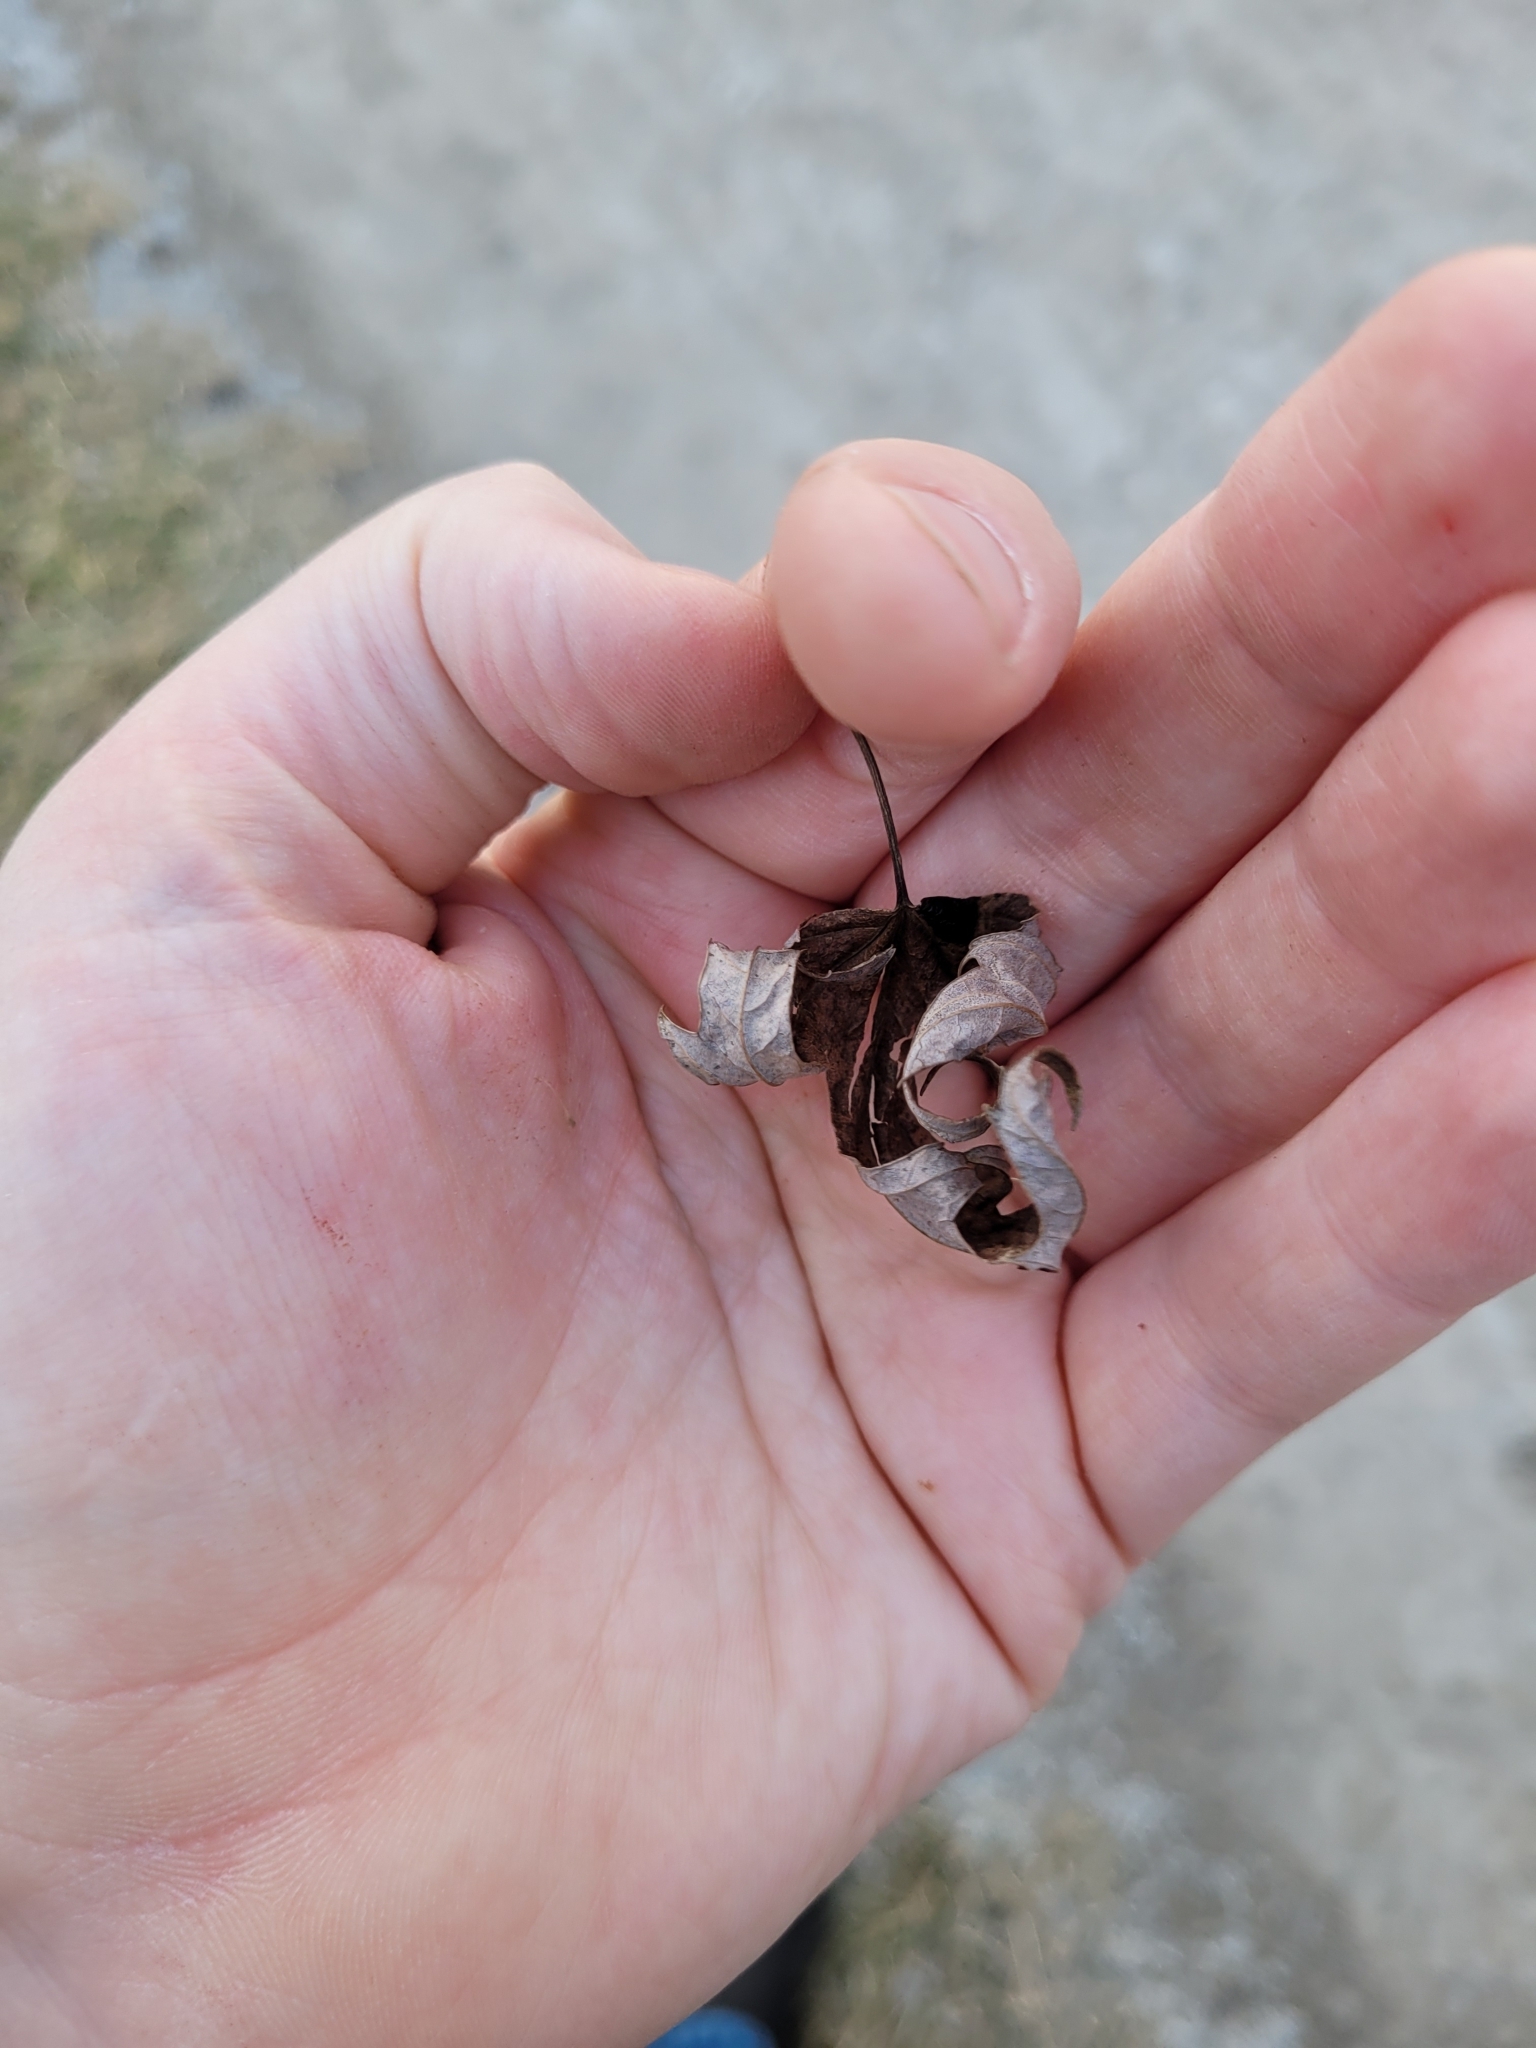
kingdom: Plantae
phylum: Tracheophyta
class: Magnoliopsida
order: Sapindales
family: Sapindaceae
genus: Acer
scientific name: Acer saccharinum
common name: Silver maple
